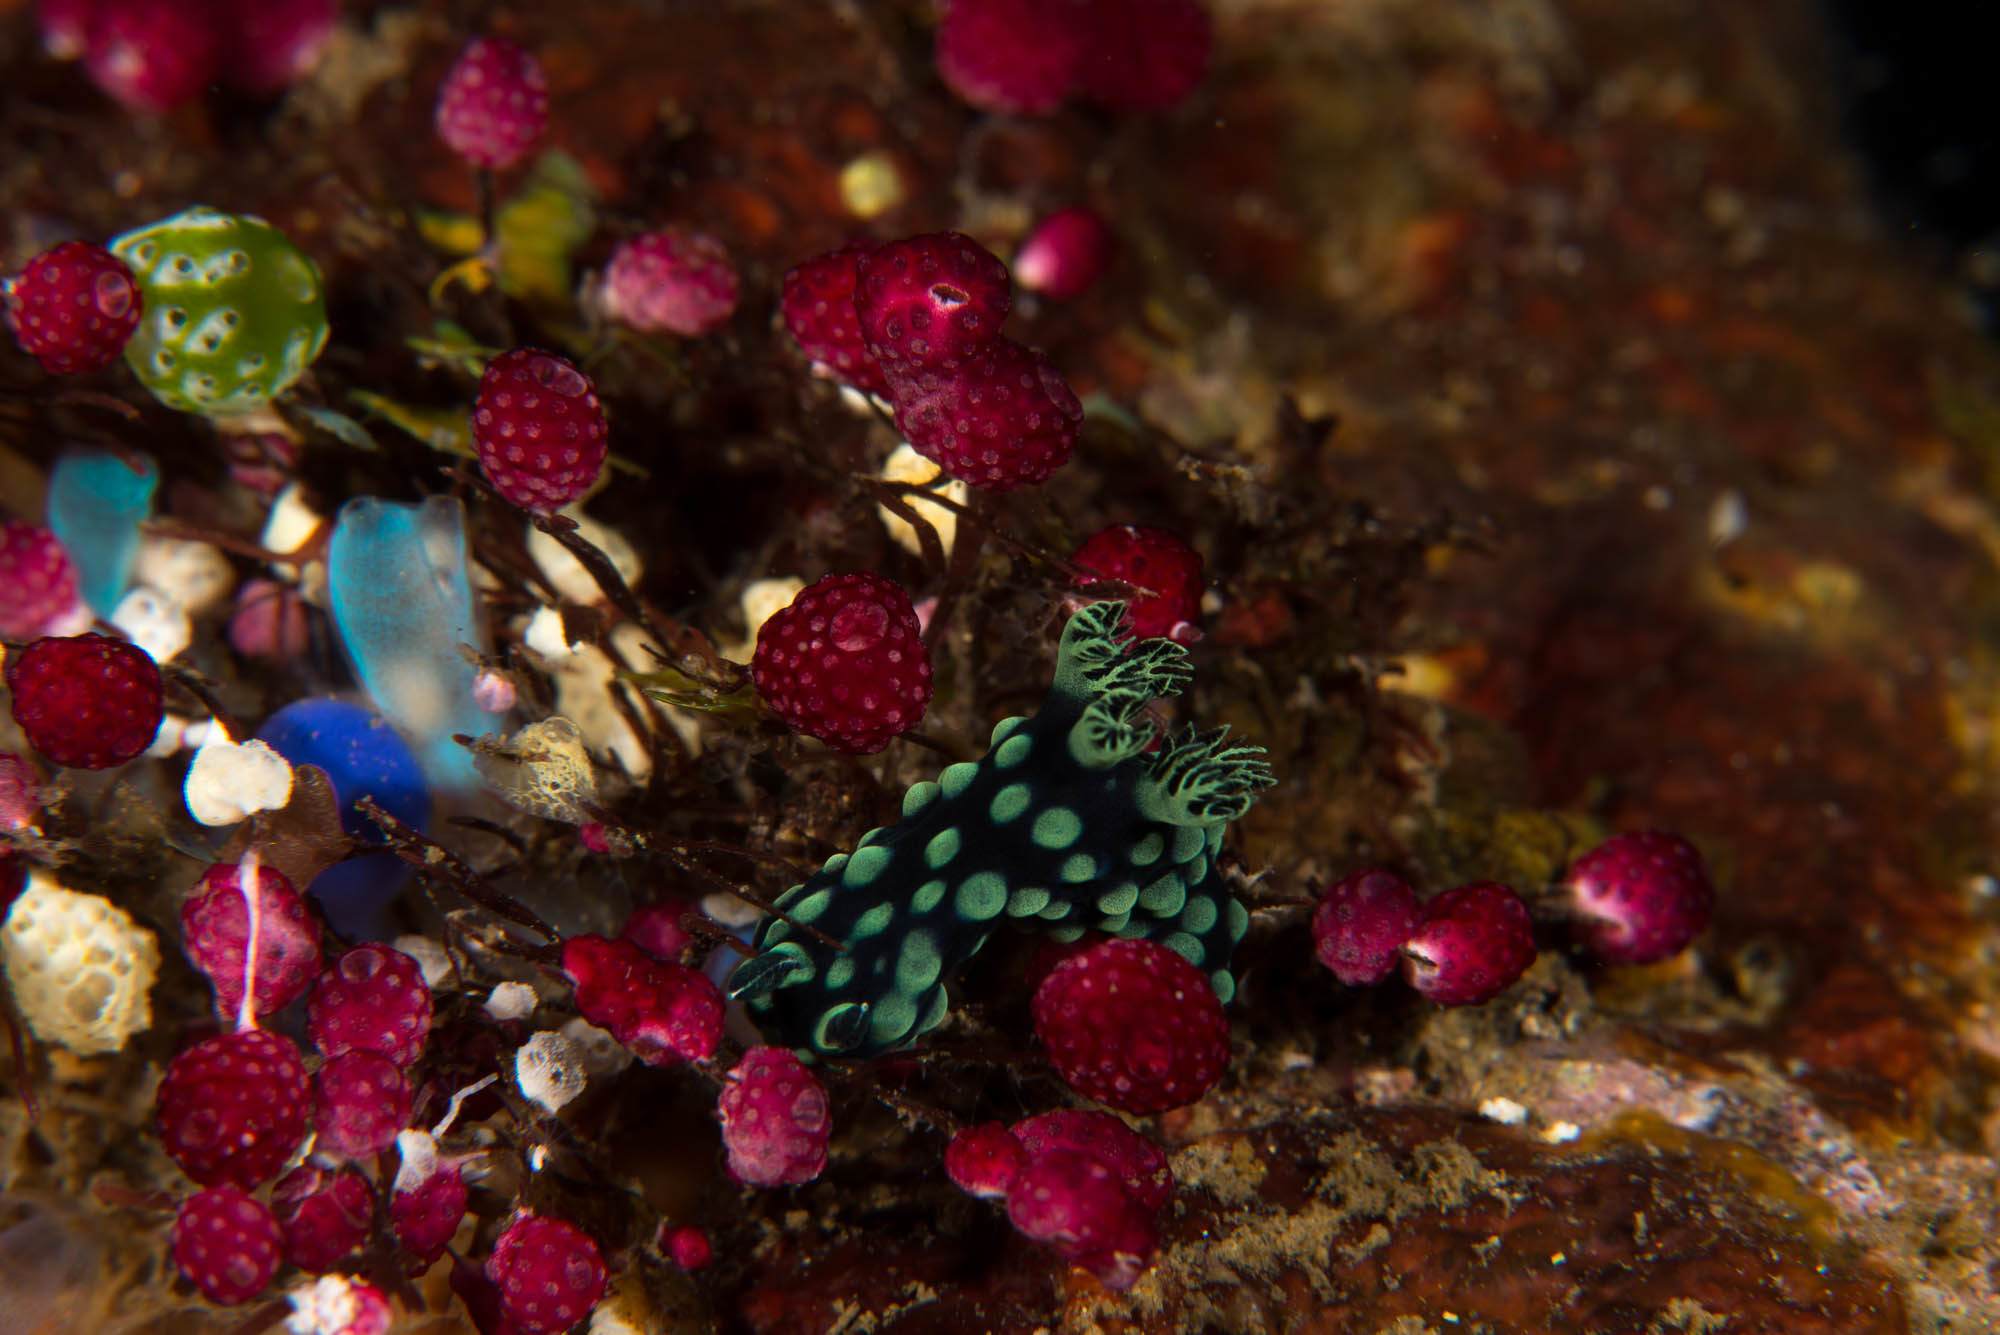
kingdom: Animalia
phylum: Mollusca
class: Gastropoda
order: Nudibranchia
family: Polyceridae
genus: Nembrotha
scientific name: Nembrotha cristata
